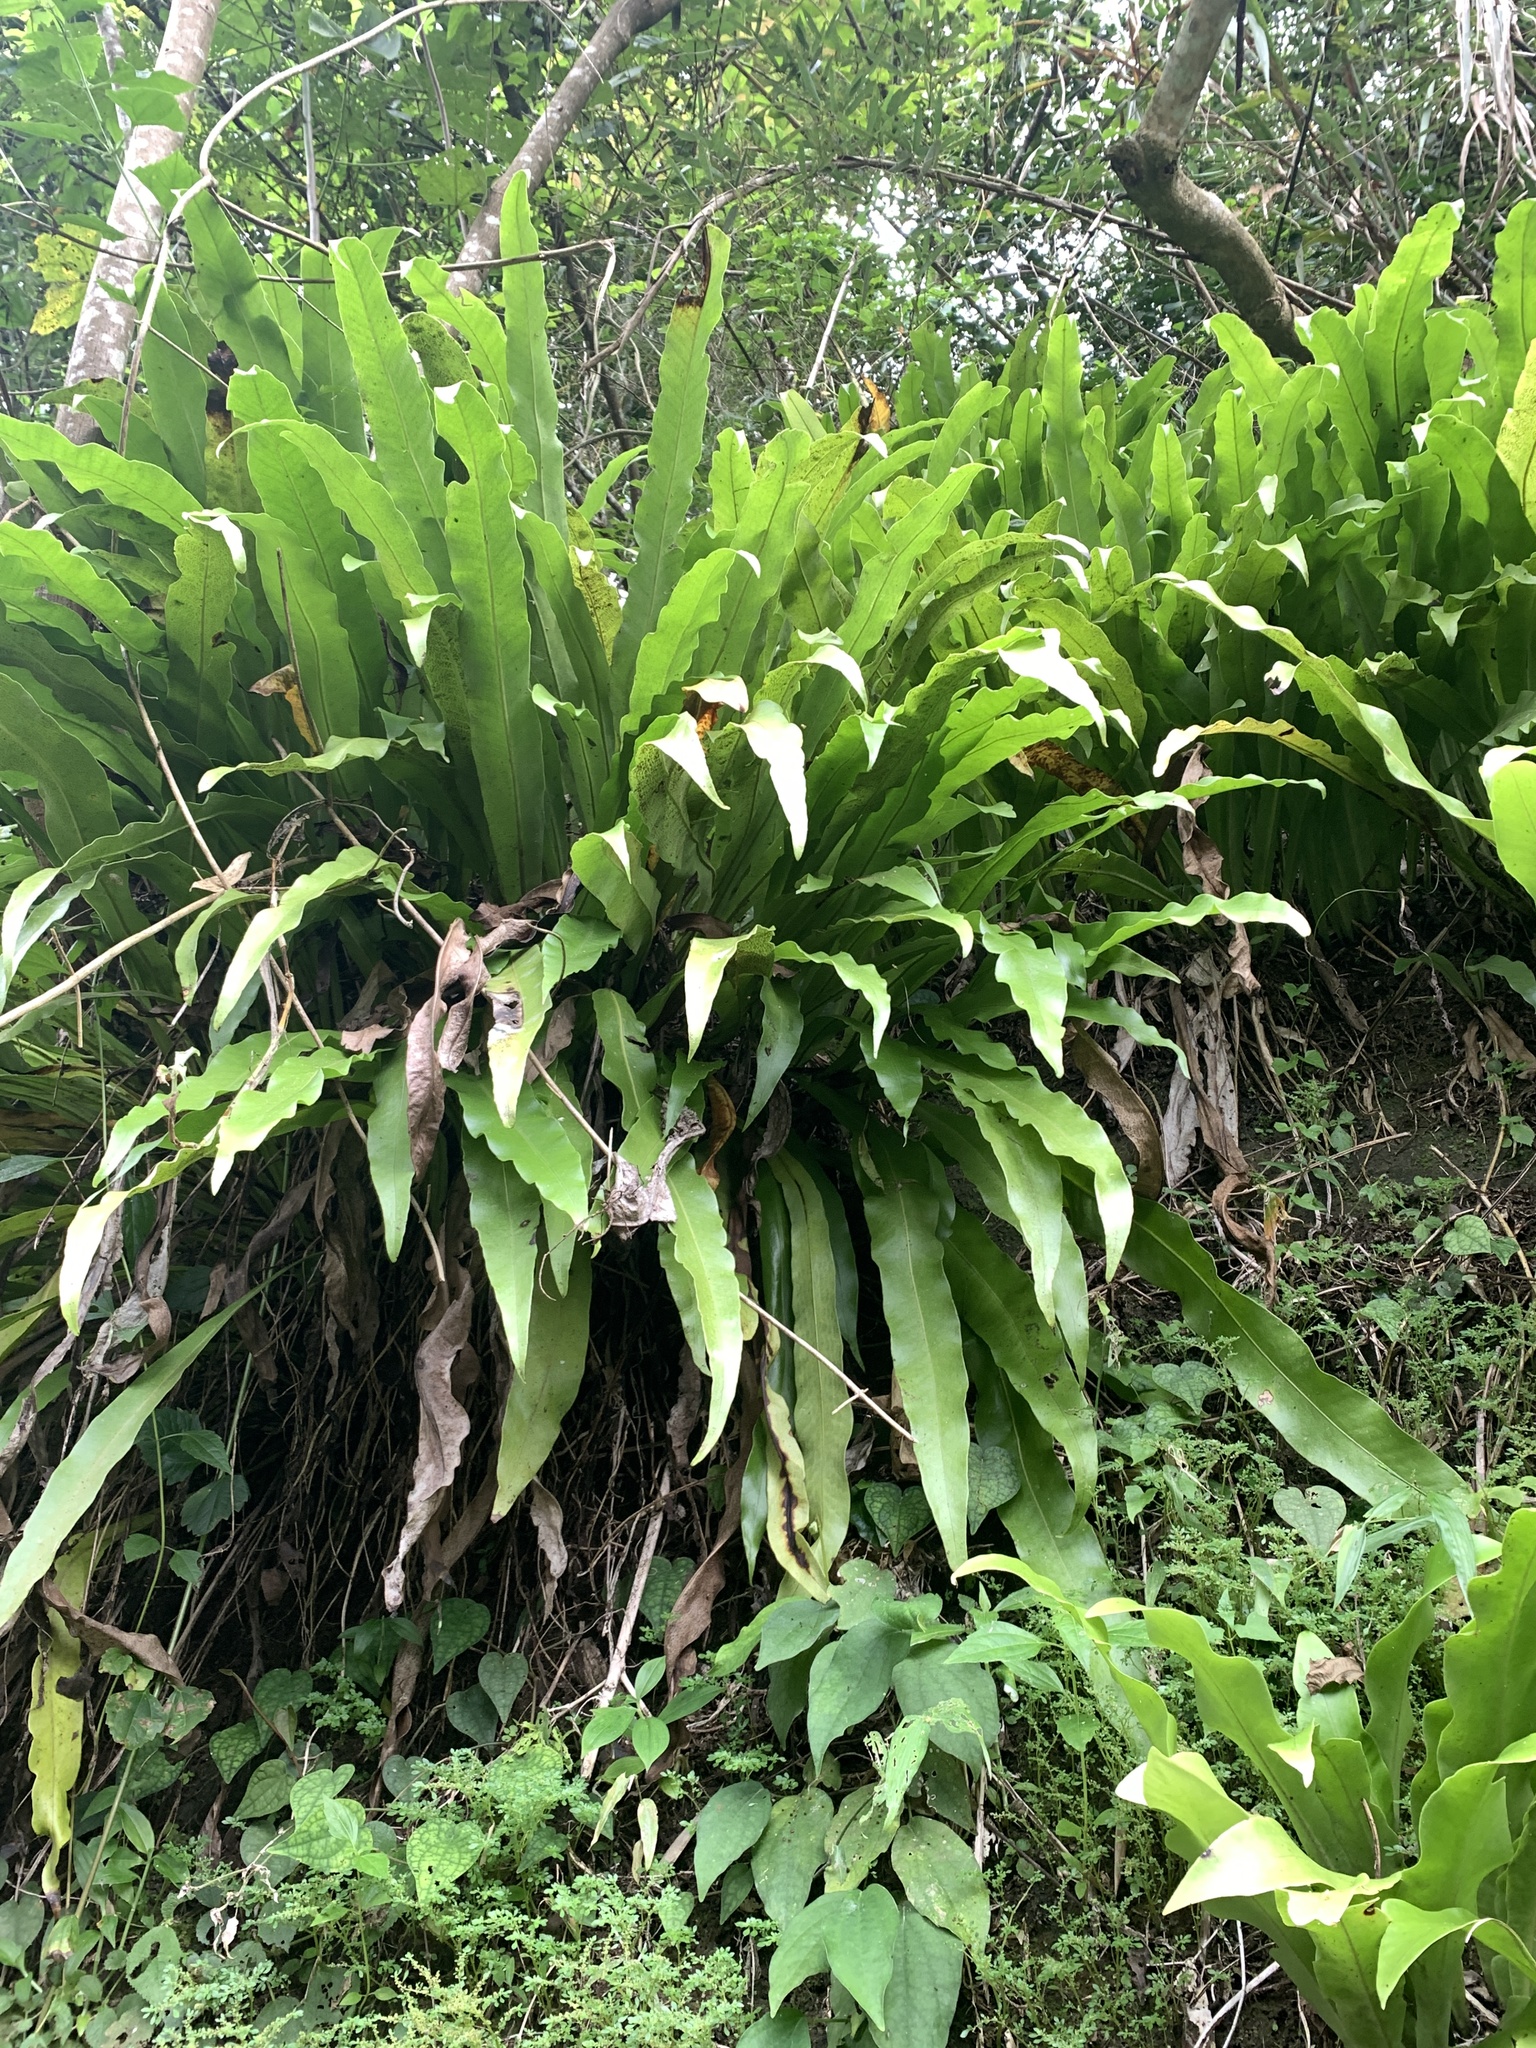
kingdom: Plantae
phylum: Tracheophyta
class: Polypodiopsida
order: Polypodiales
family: Polypodiaceae
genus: Microsorum
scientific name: Microsorum punctatum
